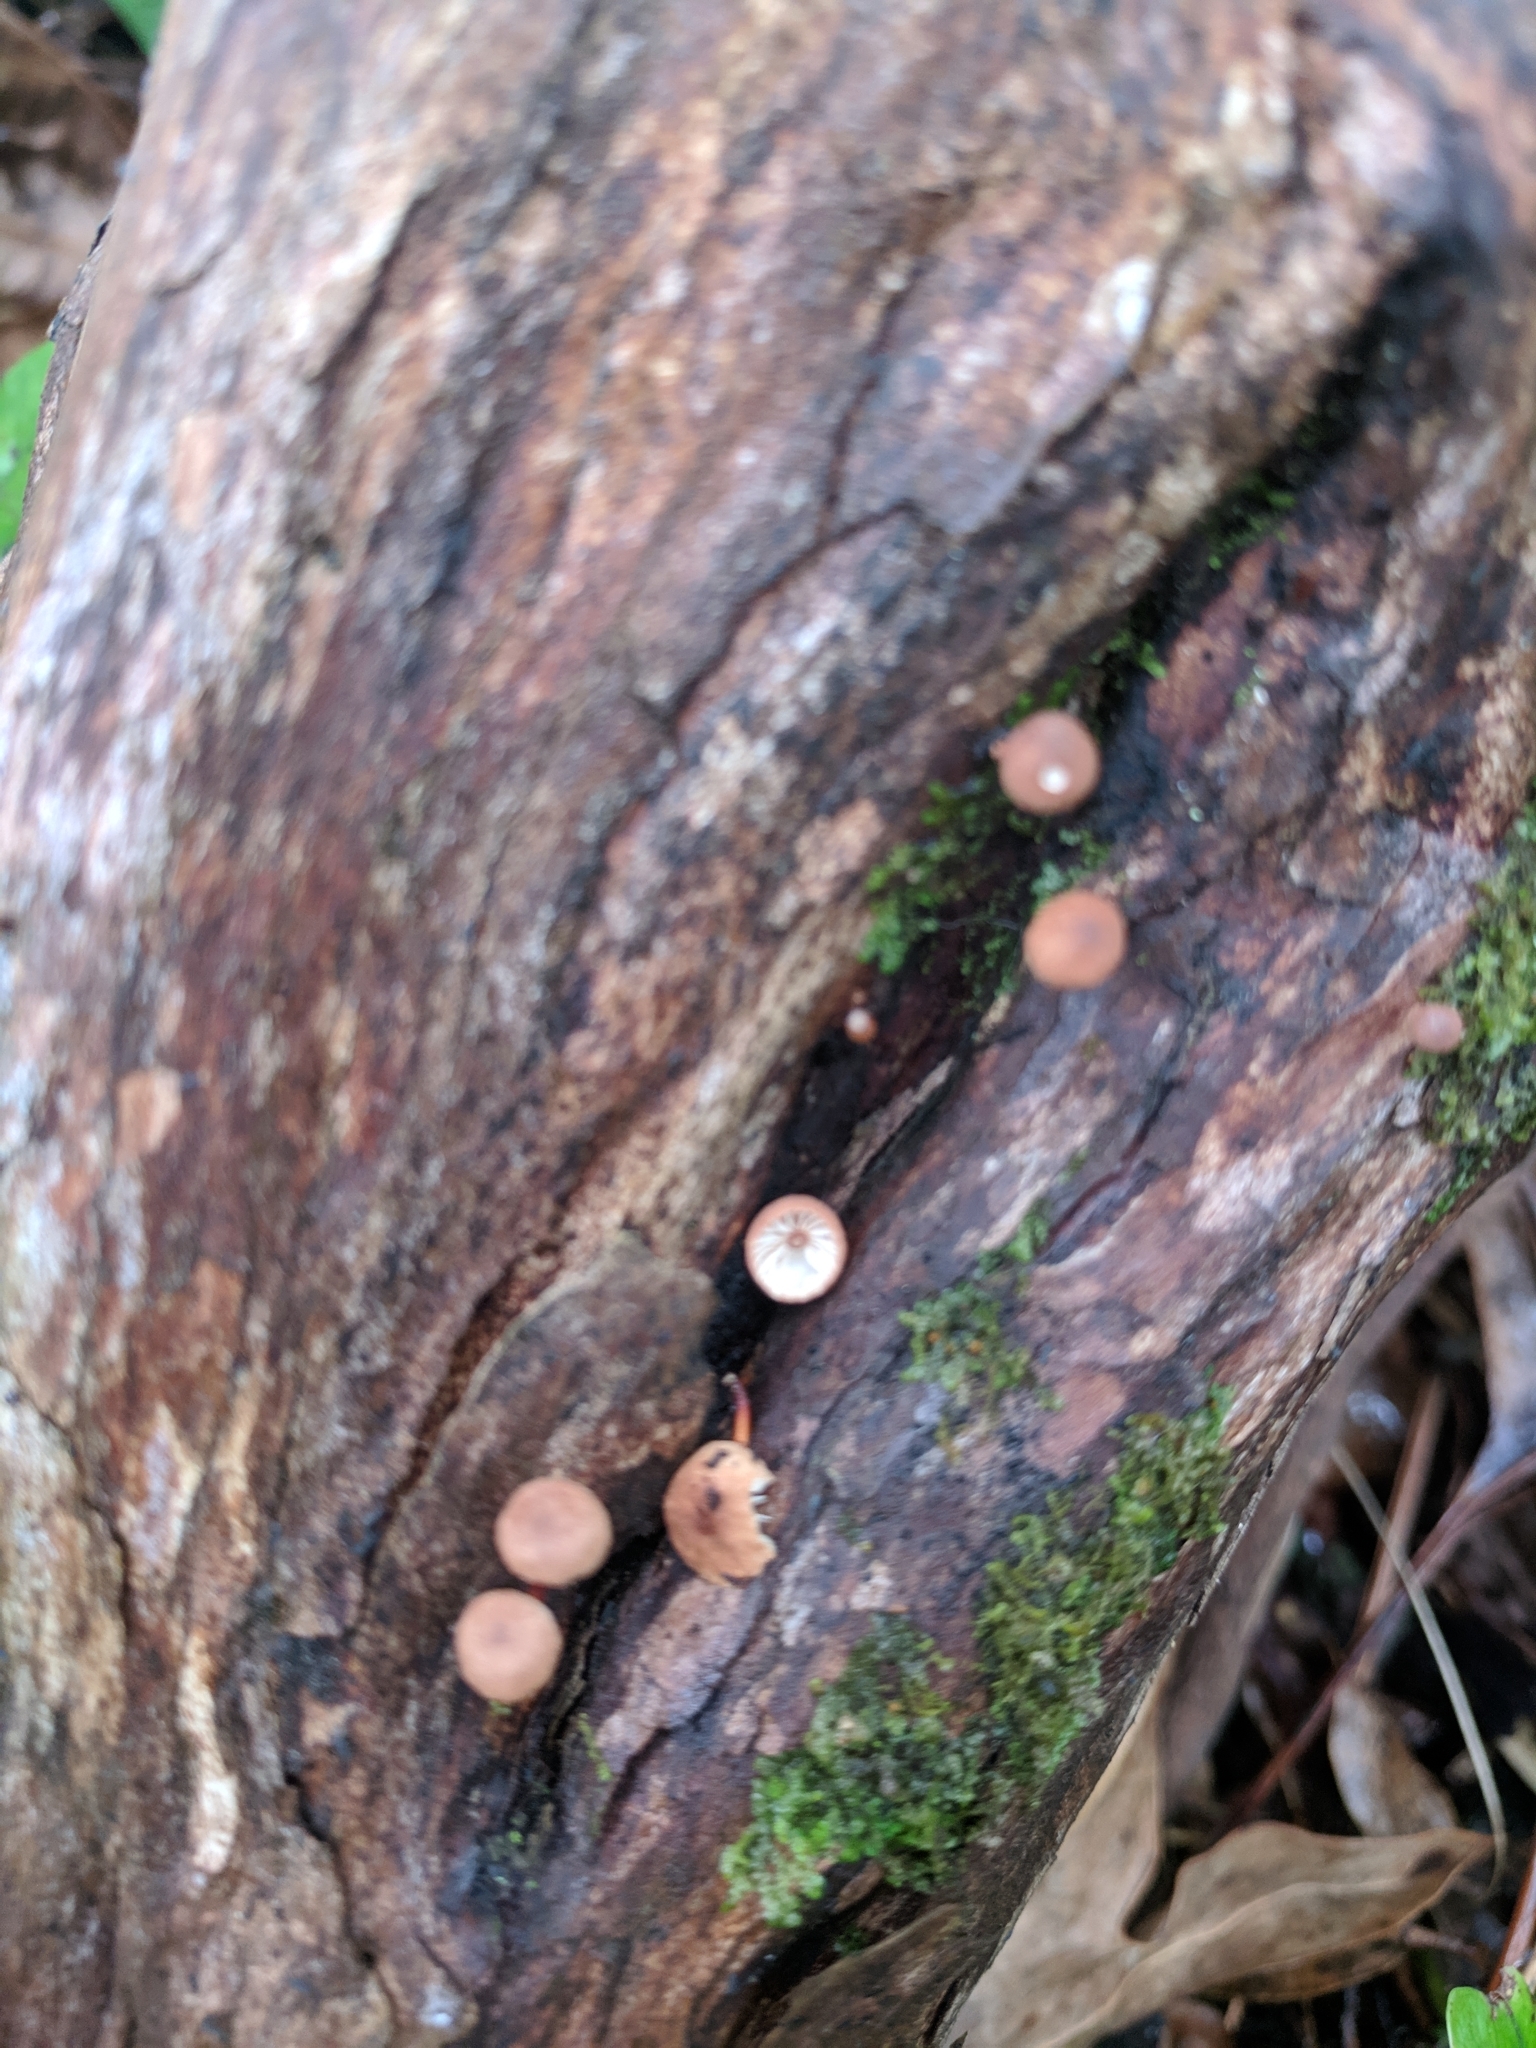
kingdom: Fungi
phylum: Basidiomycota
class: Agaricomycetes
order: Agaricales
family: Omphalotaceae
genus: Mycetinis
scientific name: Mycetinis curraniae
